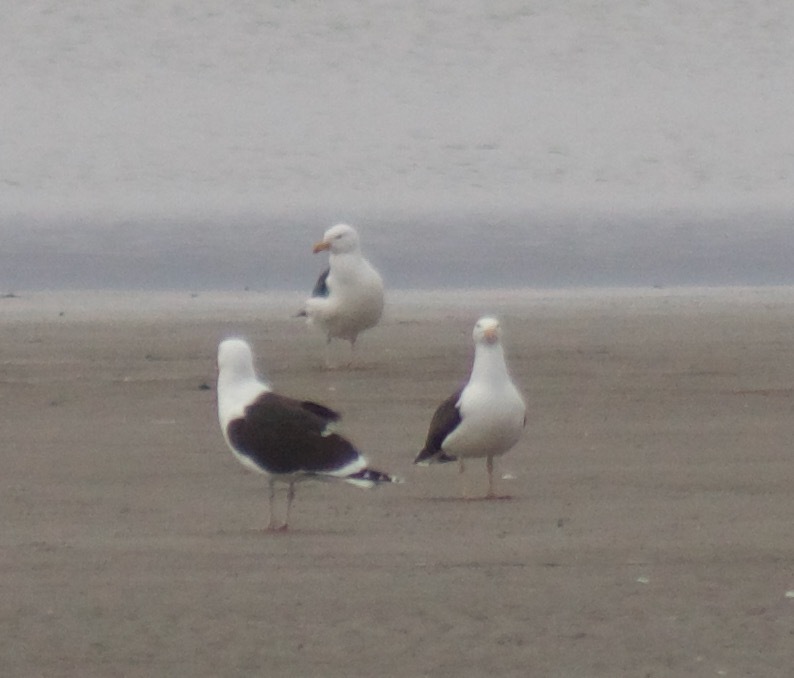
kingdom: Animalia
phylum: Chordata
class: Aves
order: Charadriiformes
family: Laridae
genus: Larus
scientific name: Larus marinus
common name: Great black-backed gull
